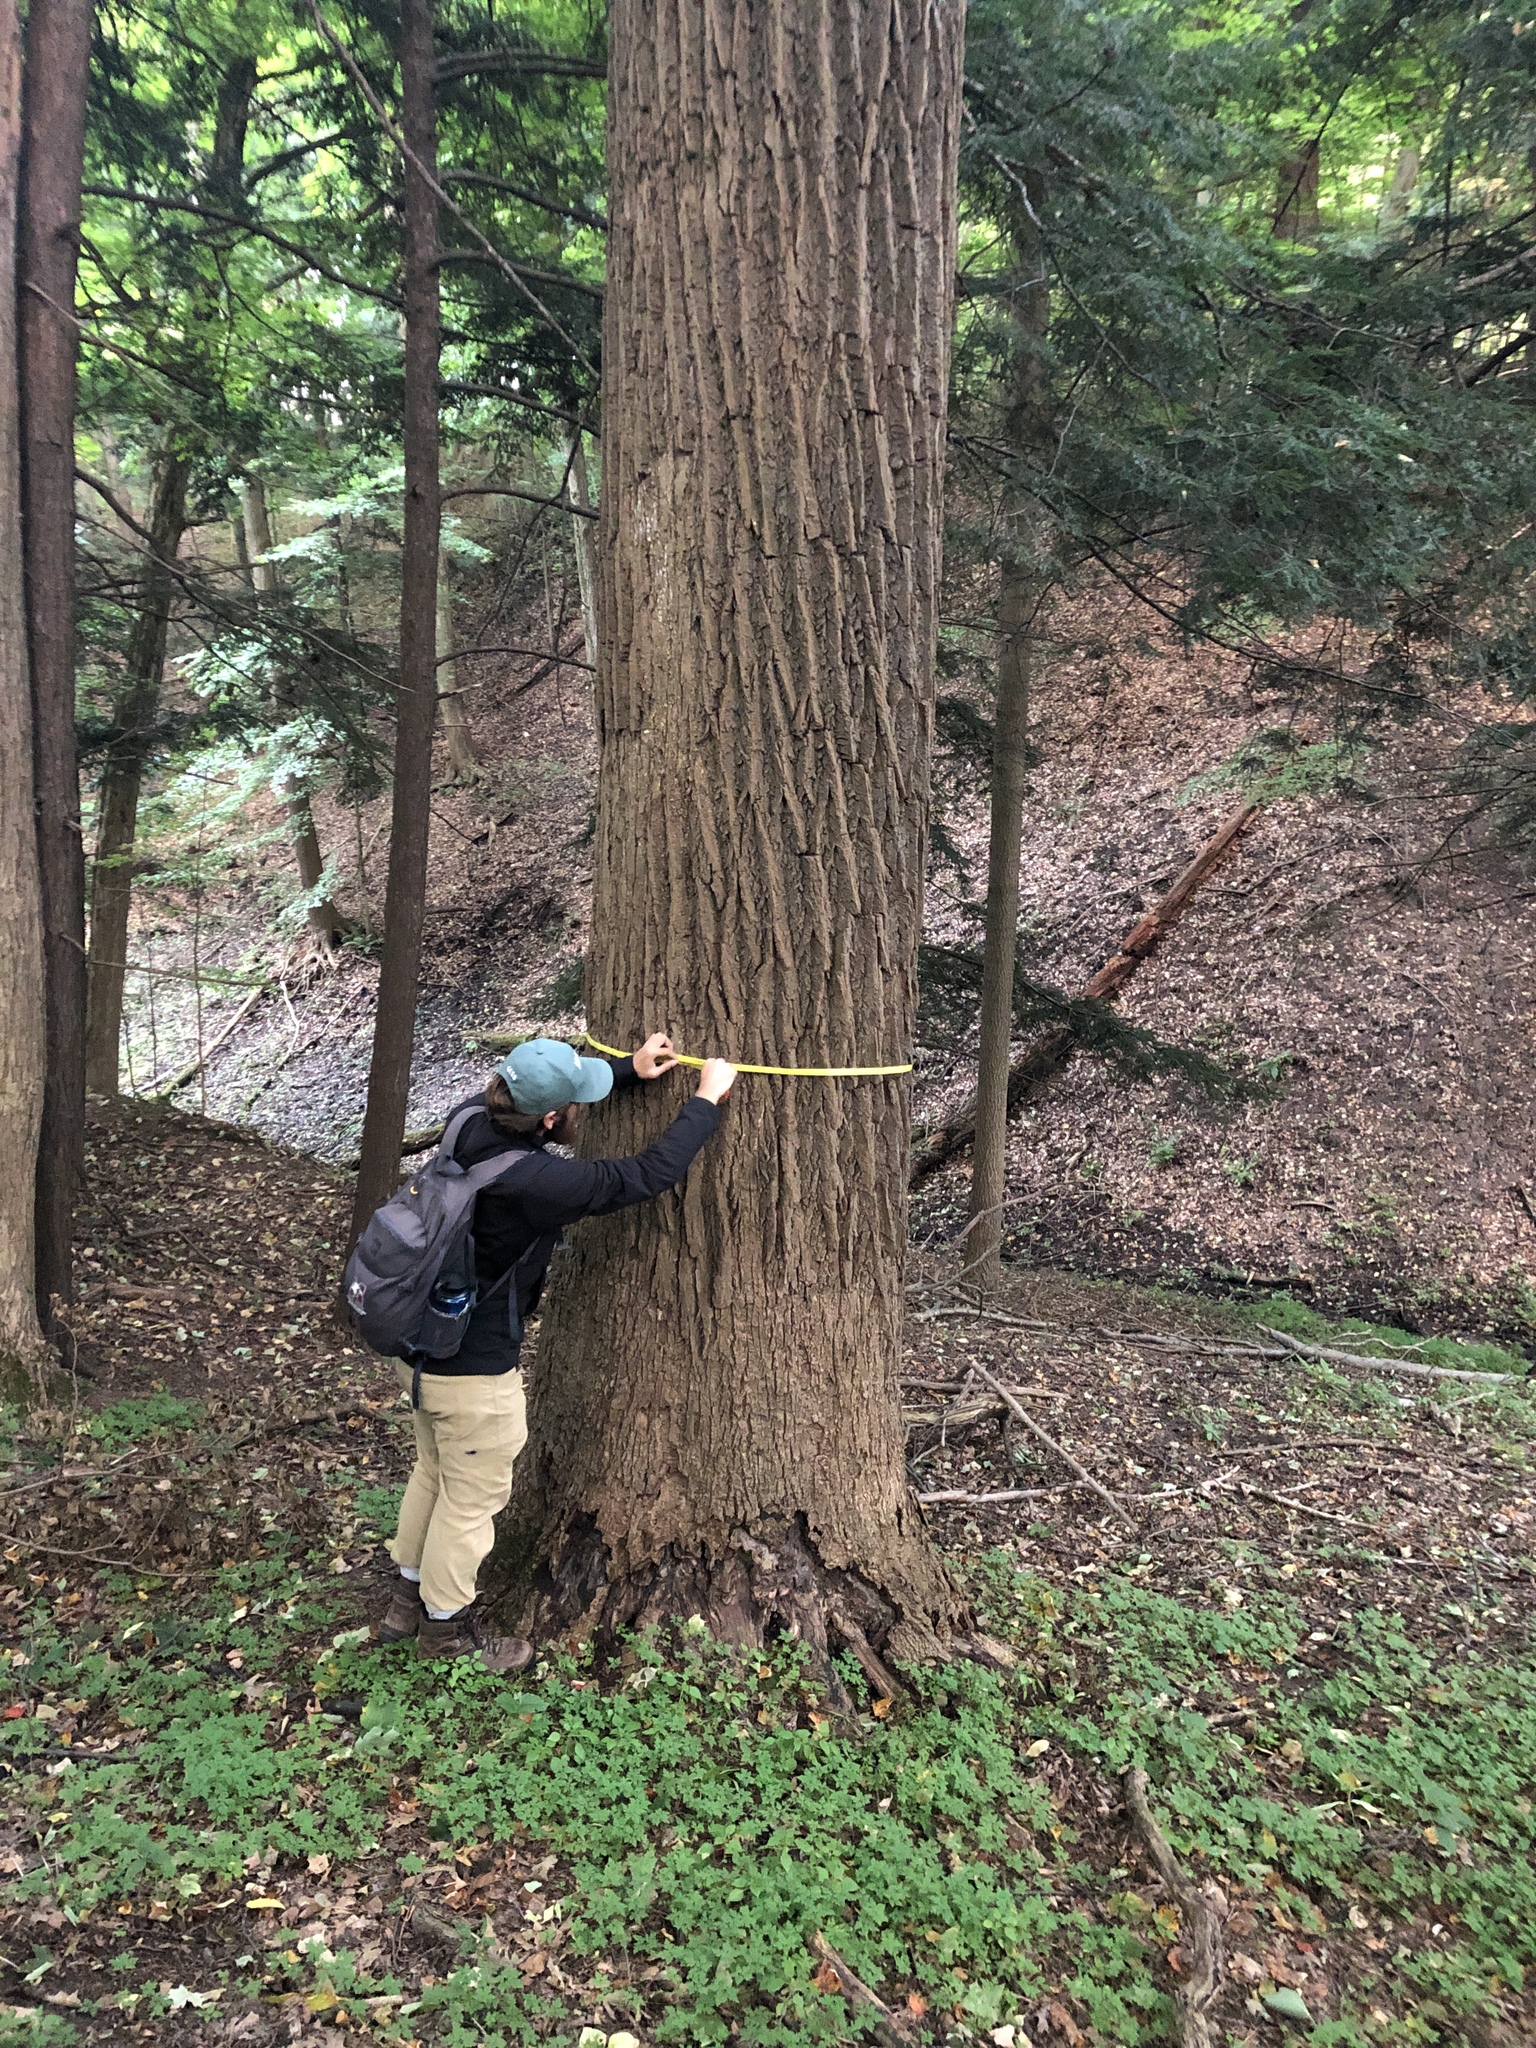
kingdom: Plantae
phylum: Tracheophyta
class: Magnoliopsida
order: Magnoliales
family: Magnoliaceae
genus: Liriodendron
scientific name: Liriodendron tulipifera
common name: Tulip tree
